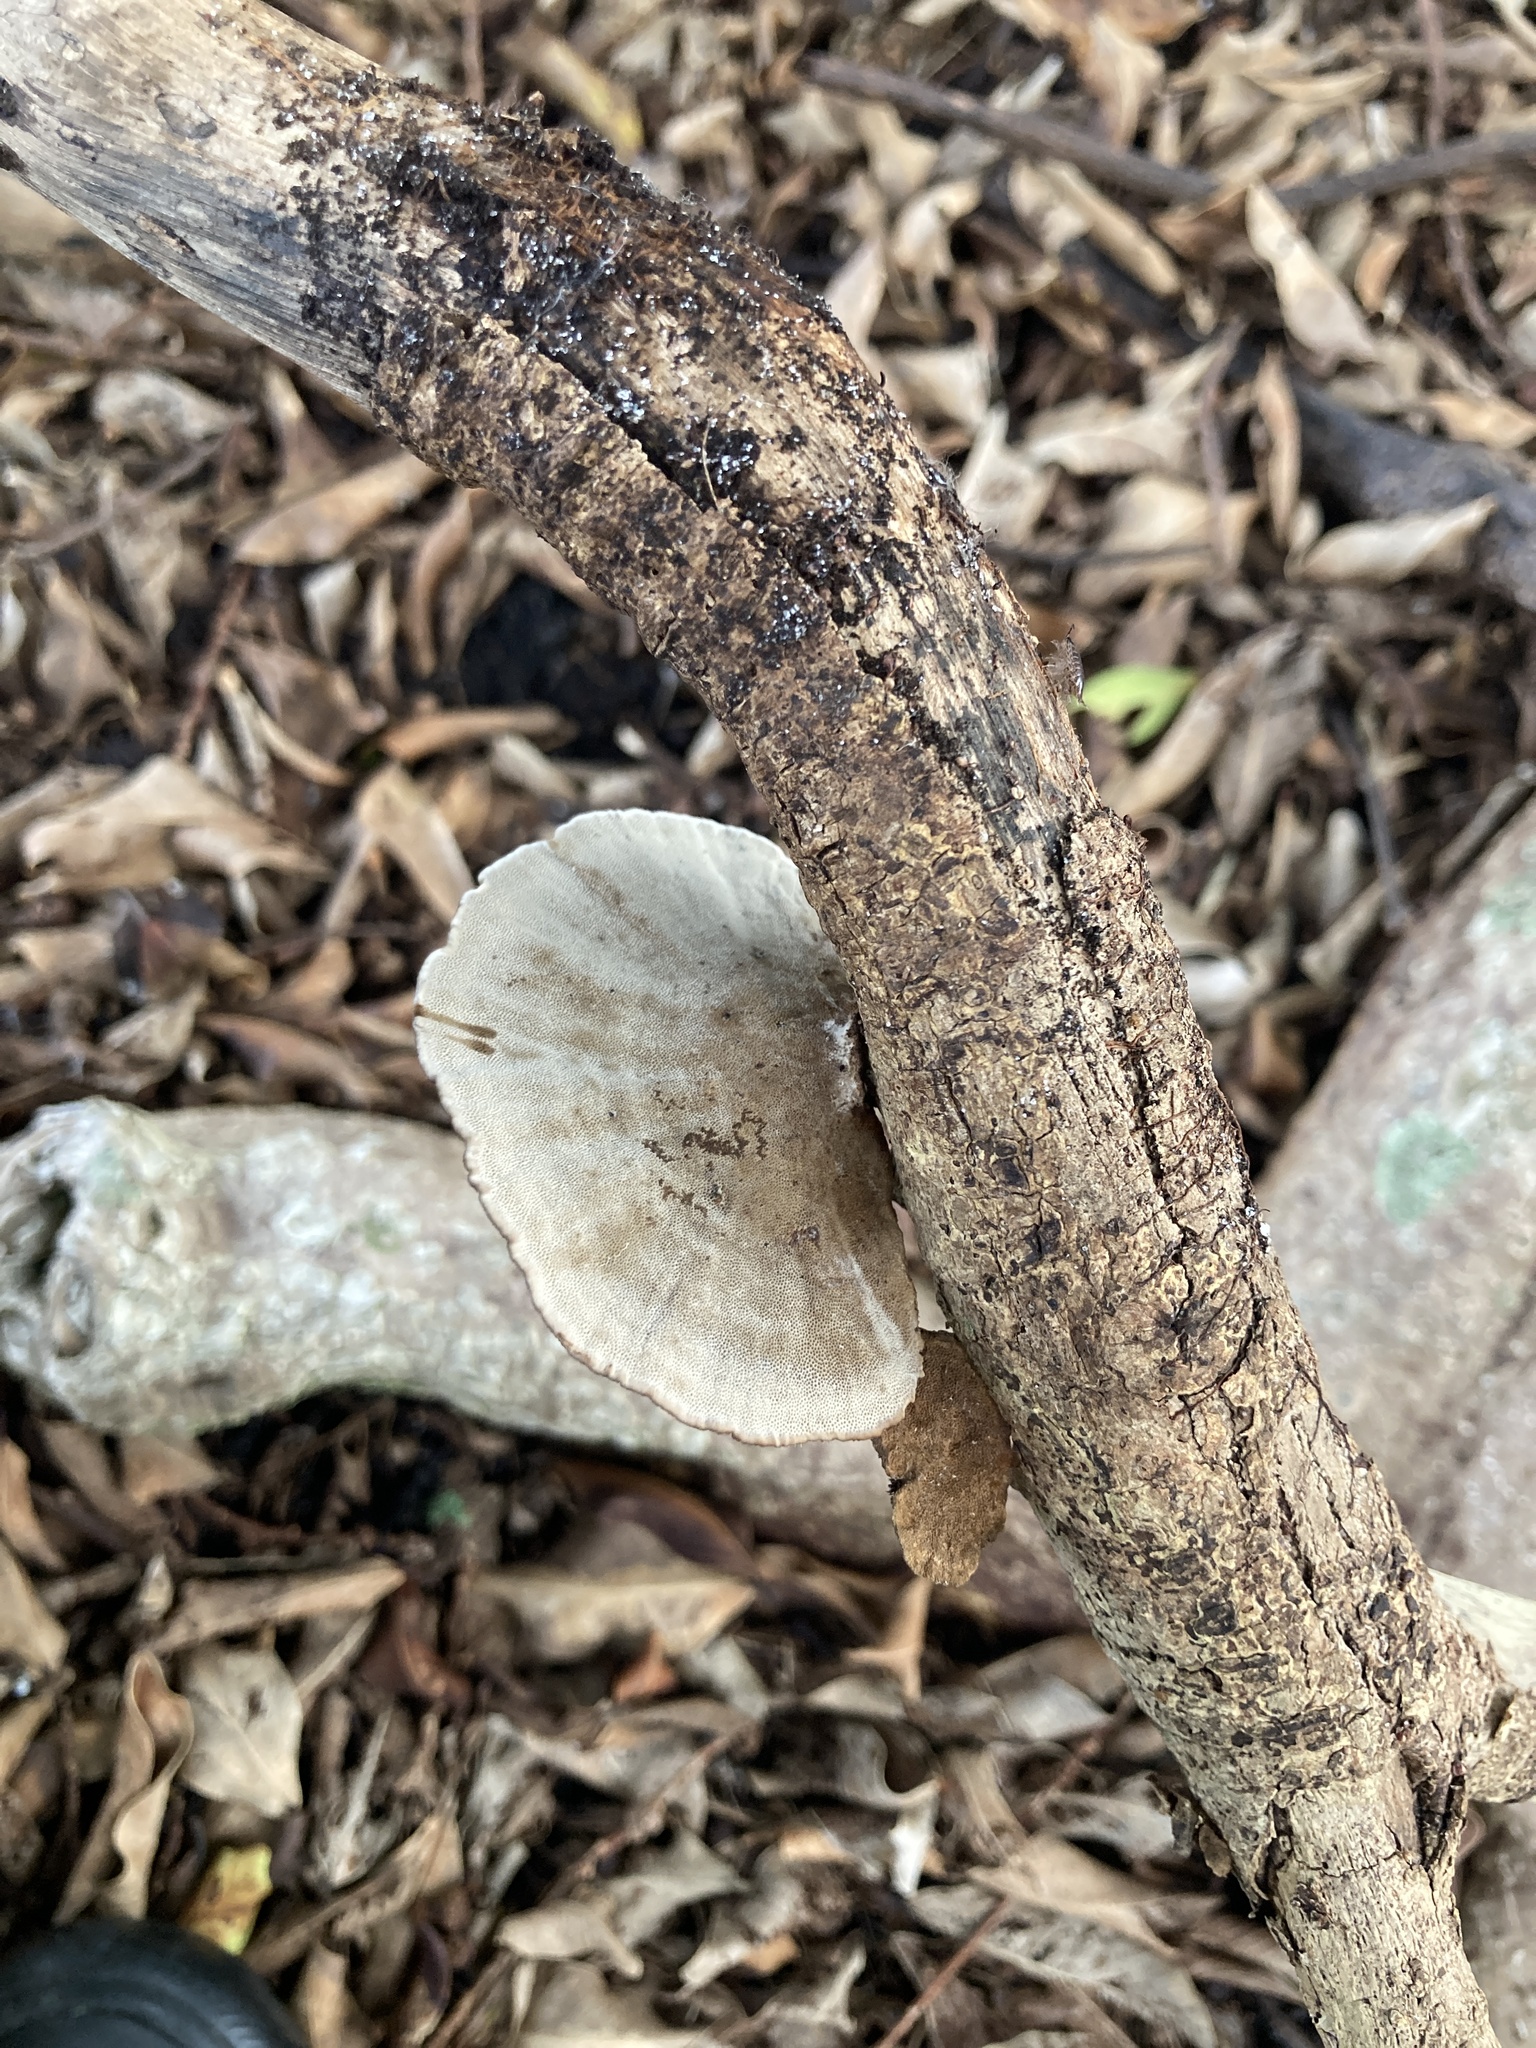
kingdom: Fungi
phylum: Basidiomycota
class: Agaricomycetes
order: Polyporales
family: Cerrenaceae
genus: Cerrena
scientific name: Cerrena hydnoides
